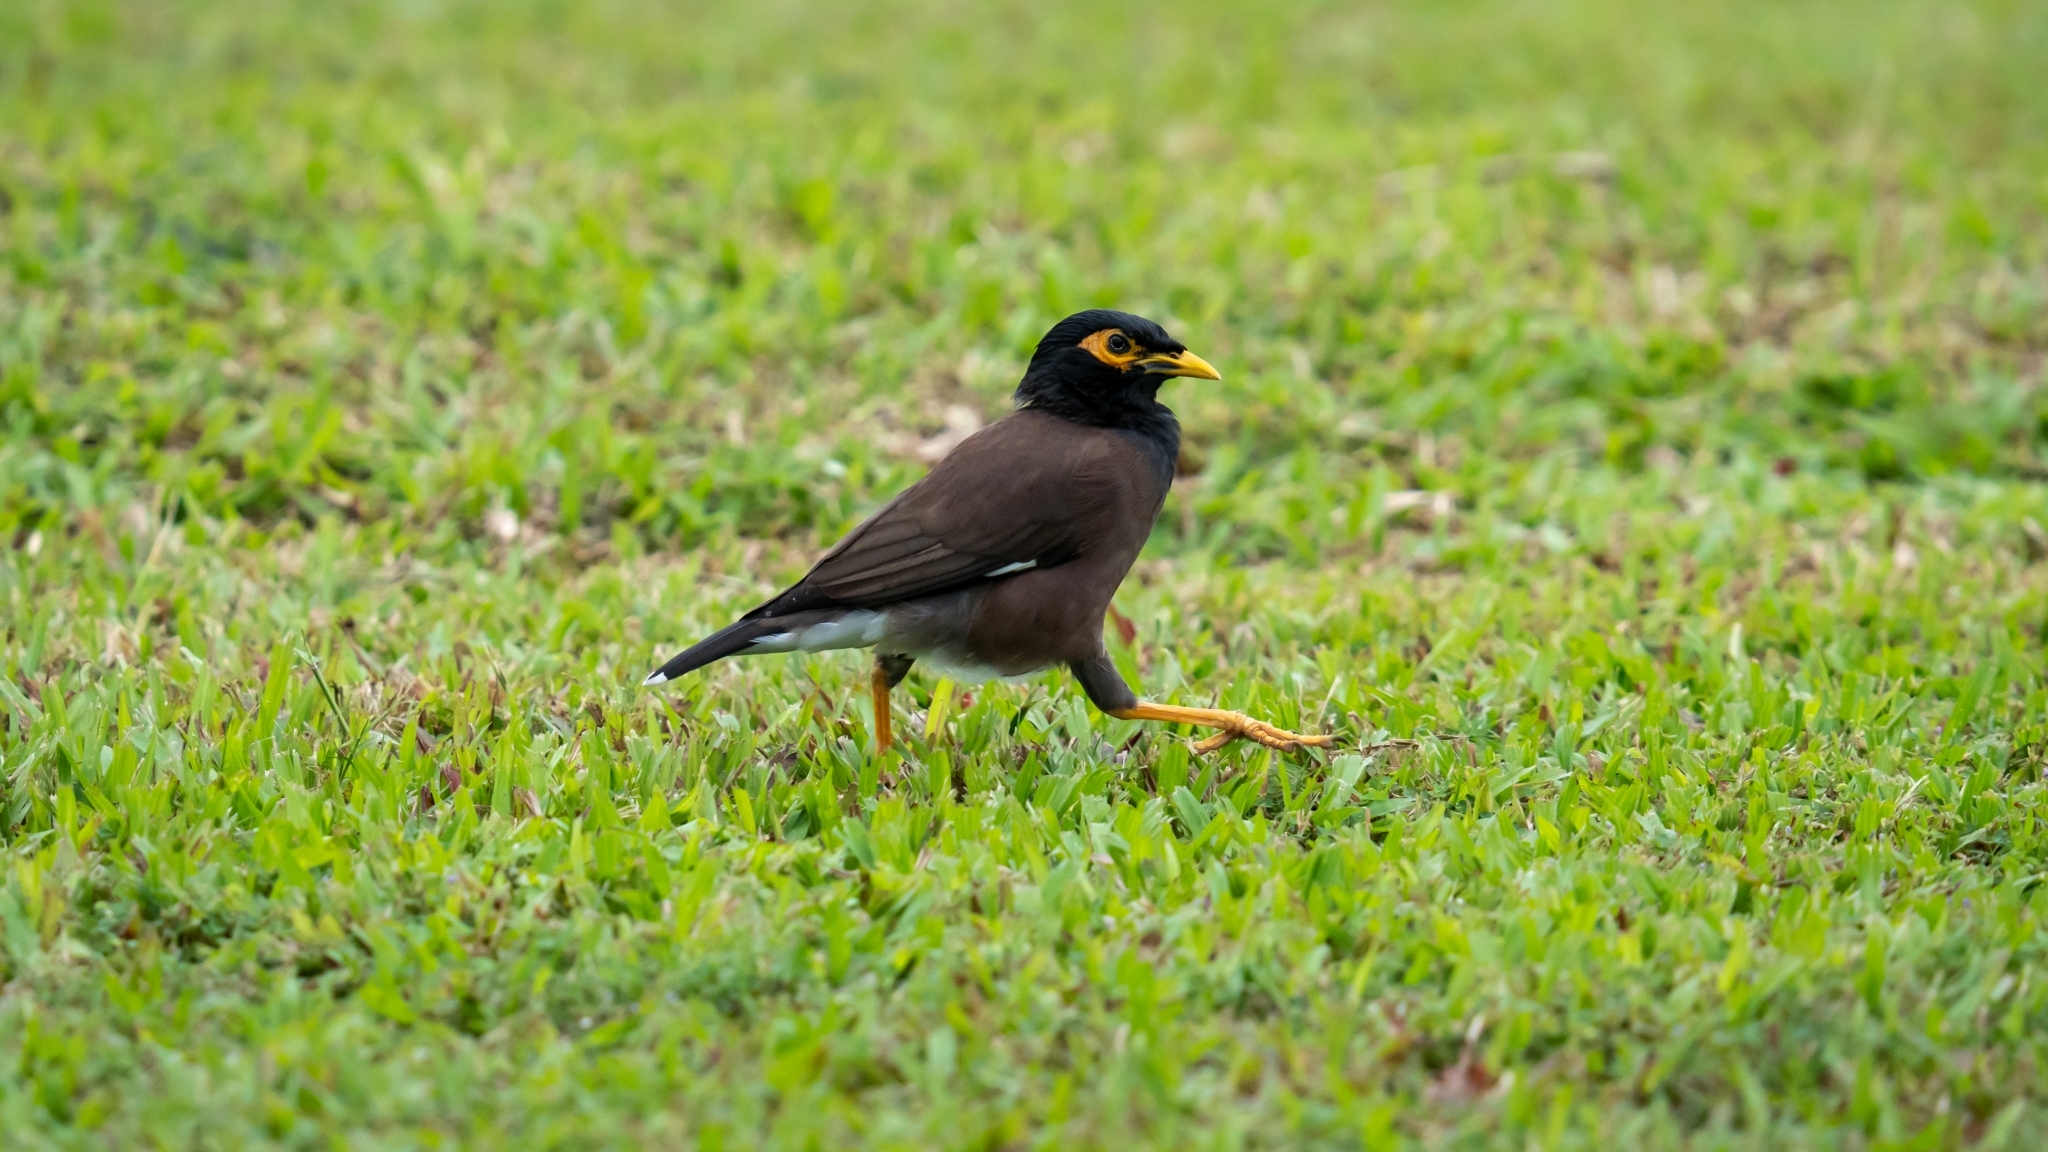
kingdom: Animalia
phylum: Chordata
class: Aves
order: Passeriformes
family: Sturnidae
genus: Acridotheres
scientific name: Acridotheres tristis
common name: Common myna
